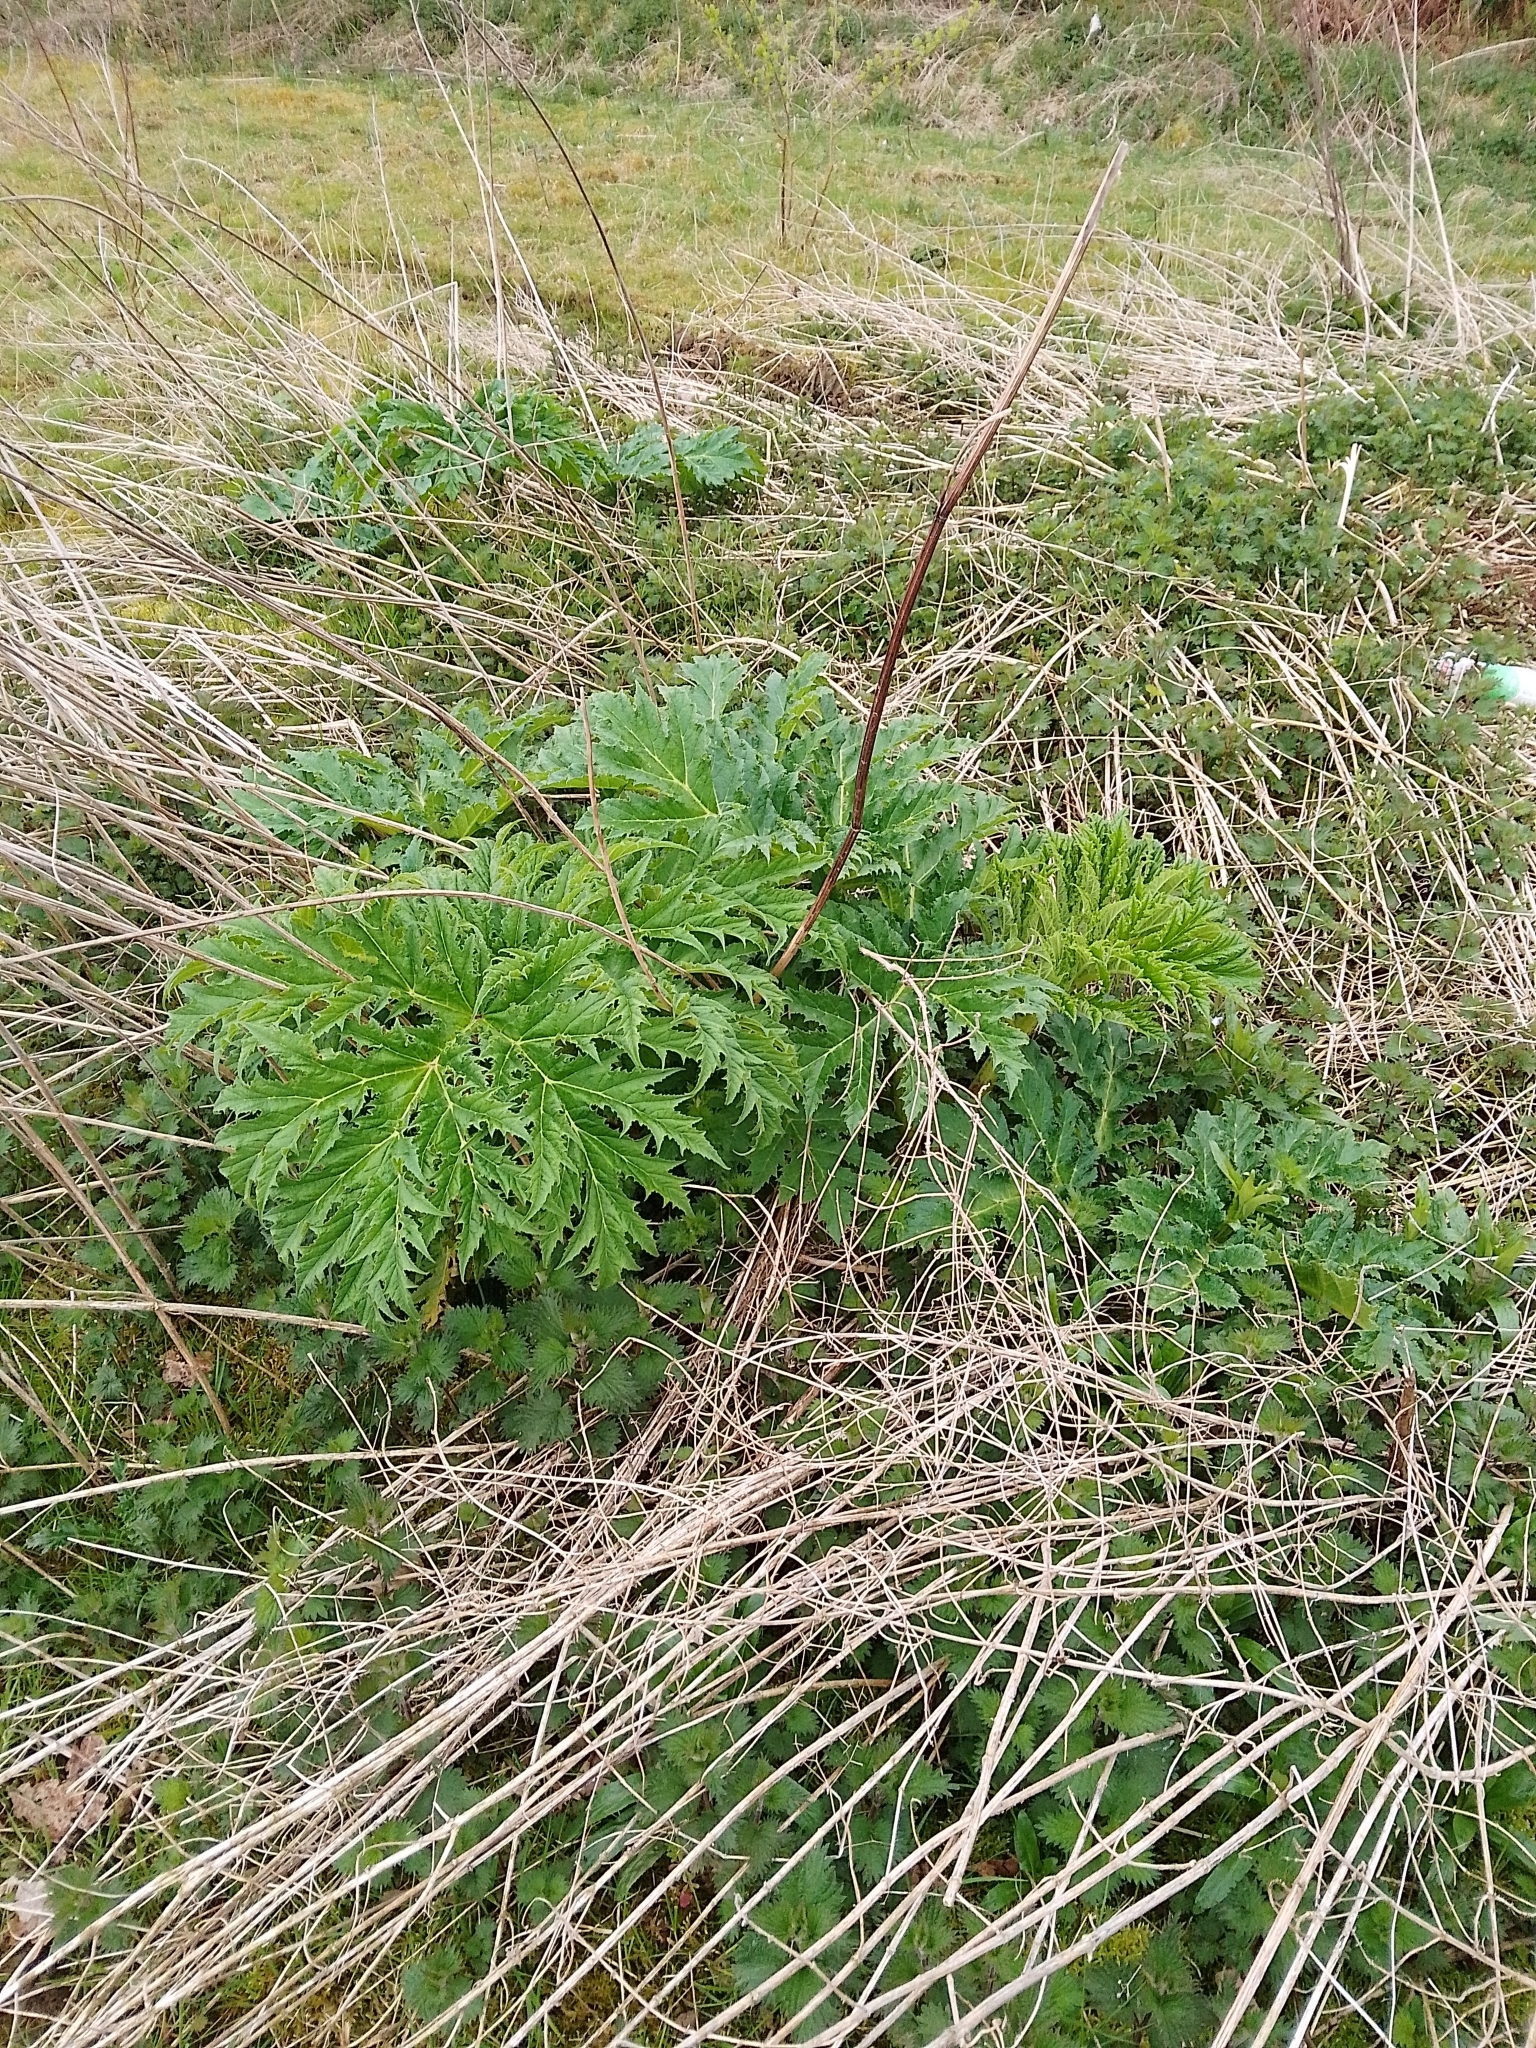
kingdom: Plantae
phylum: Tracheophyta
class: Magnoliopsida
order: Apiales
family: Apiaceae
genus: Heracleum
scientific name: Heracleum mantegazzianum
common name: Giant hogweed
